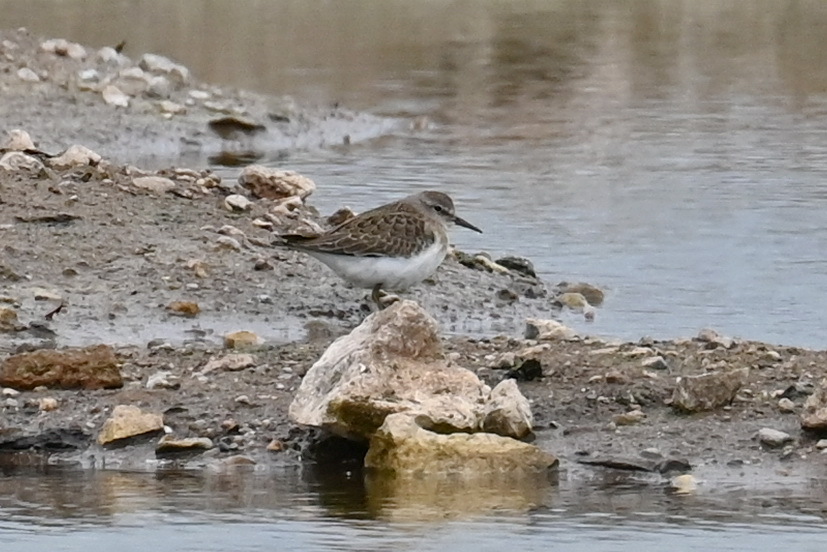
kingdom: Animalia
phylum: Chordata
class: Aves
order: Charadriiformes
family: Scolopacidae
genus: Calidris
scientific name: Calidris temminckii
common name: Temminck's stint
